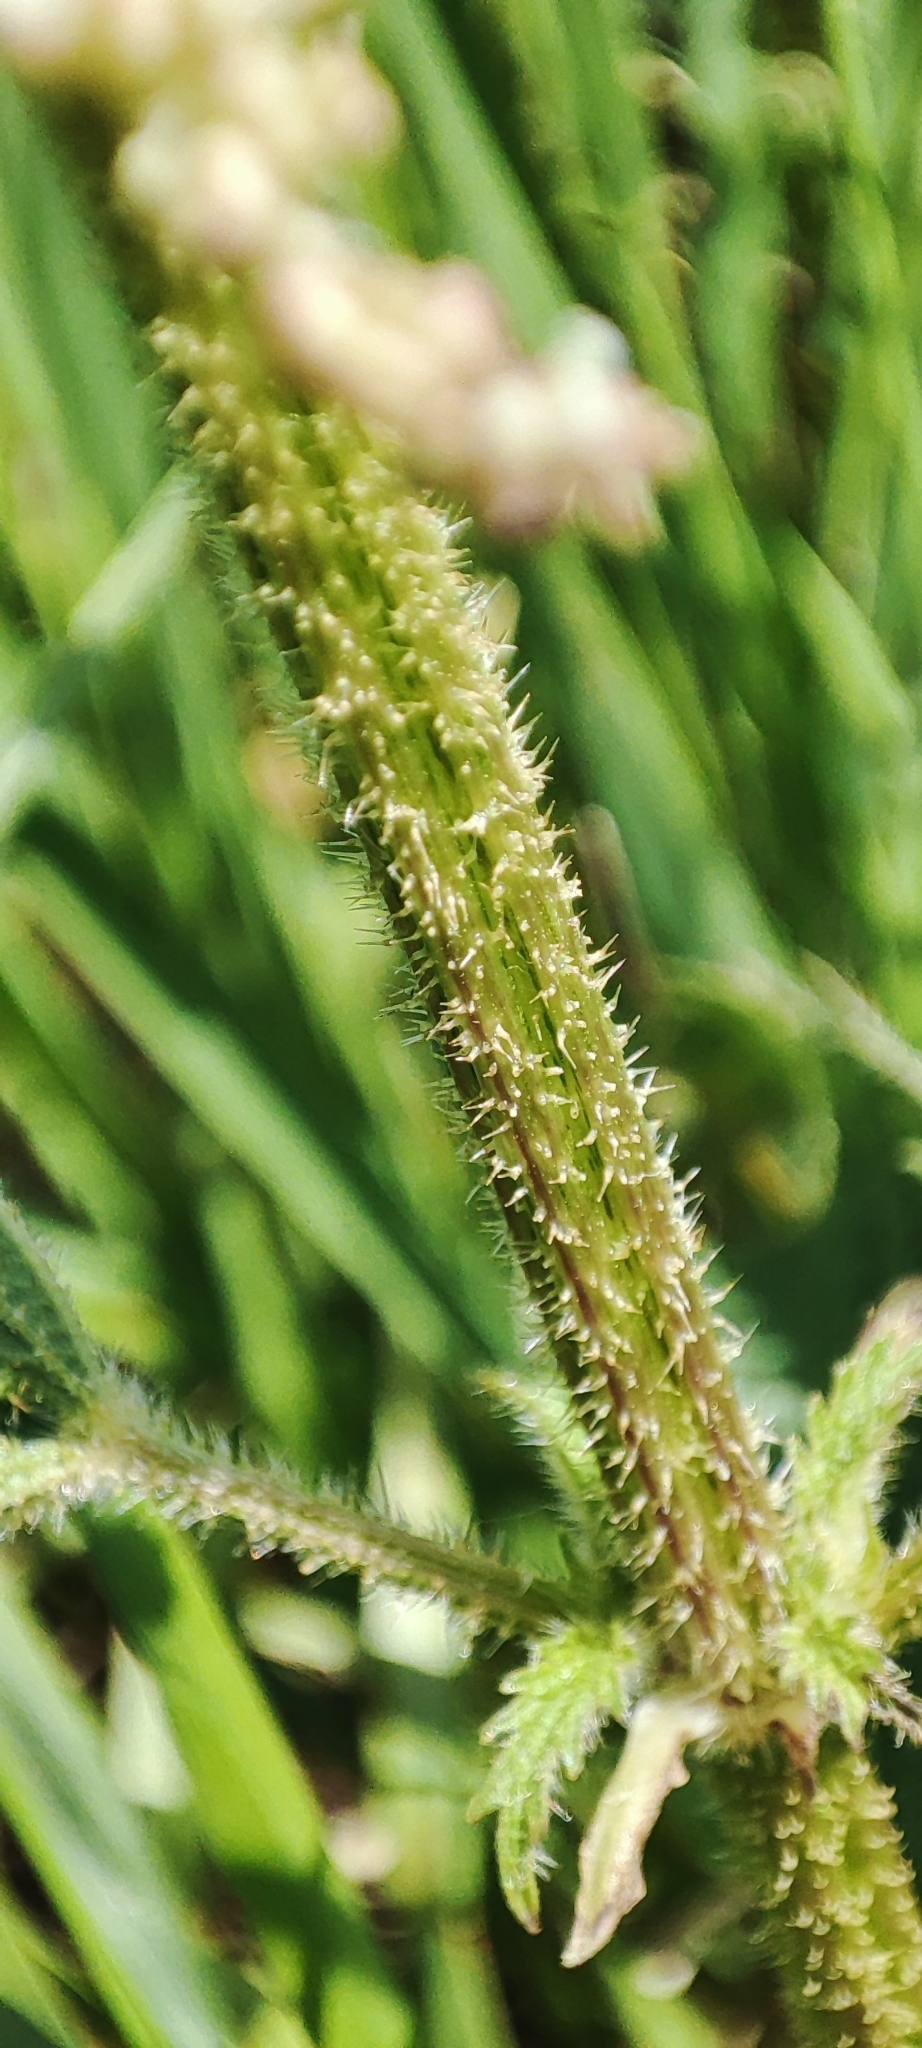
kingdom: Plantae
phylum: Tracheophyta
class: Magnoliopsida
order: Rosales
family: Urticaceae
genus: Urtica
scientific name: Urtica dioica
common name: Common nettle
